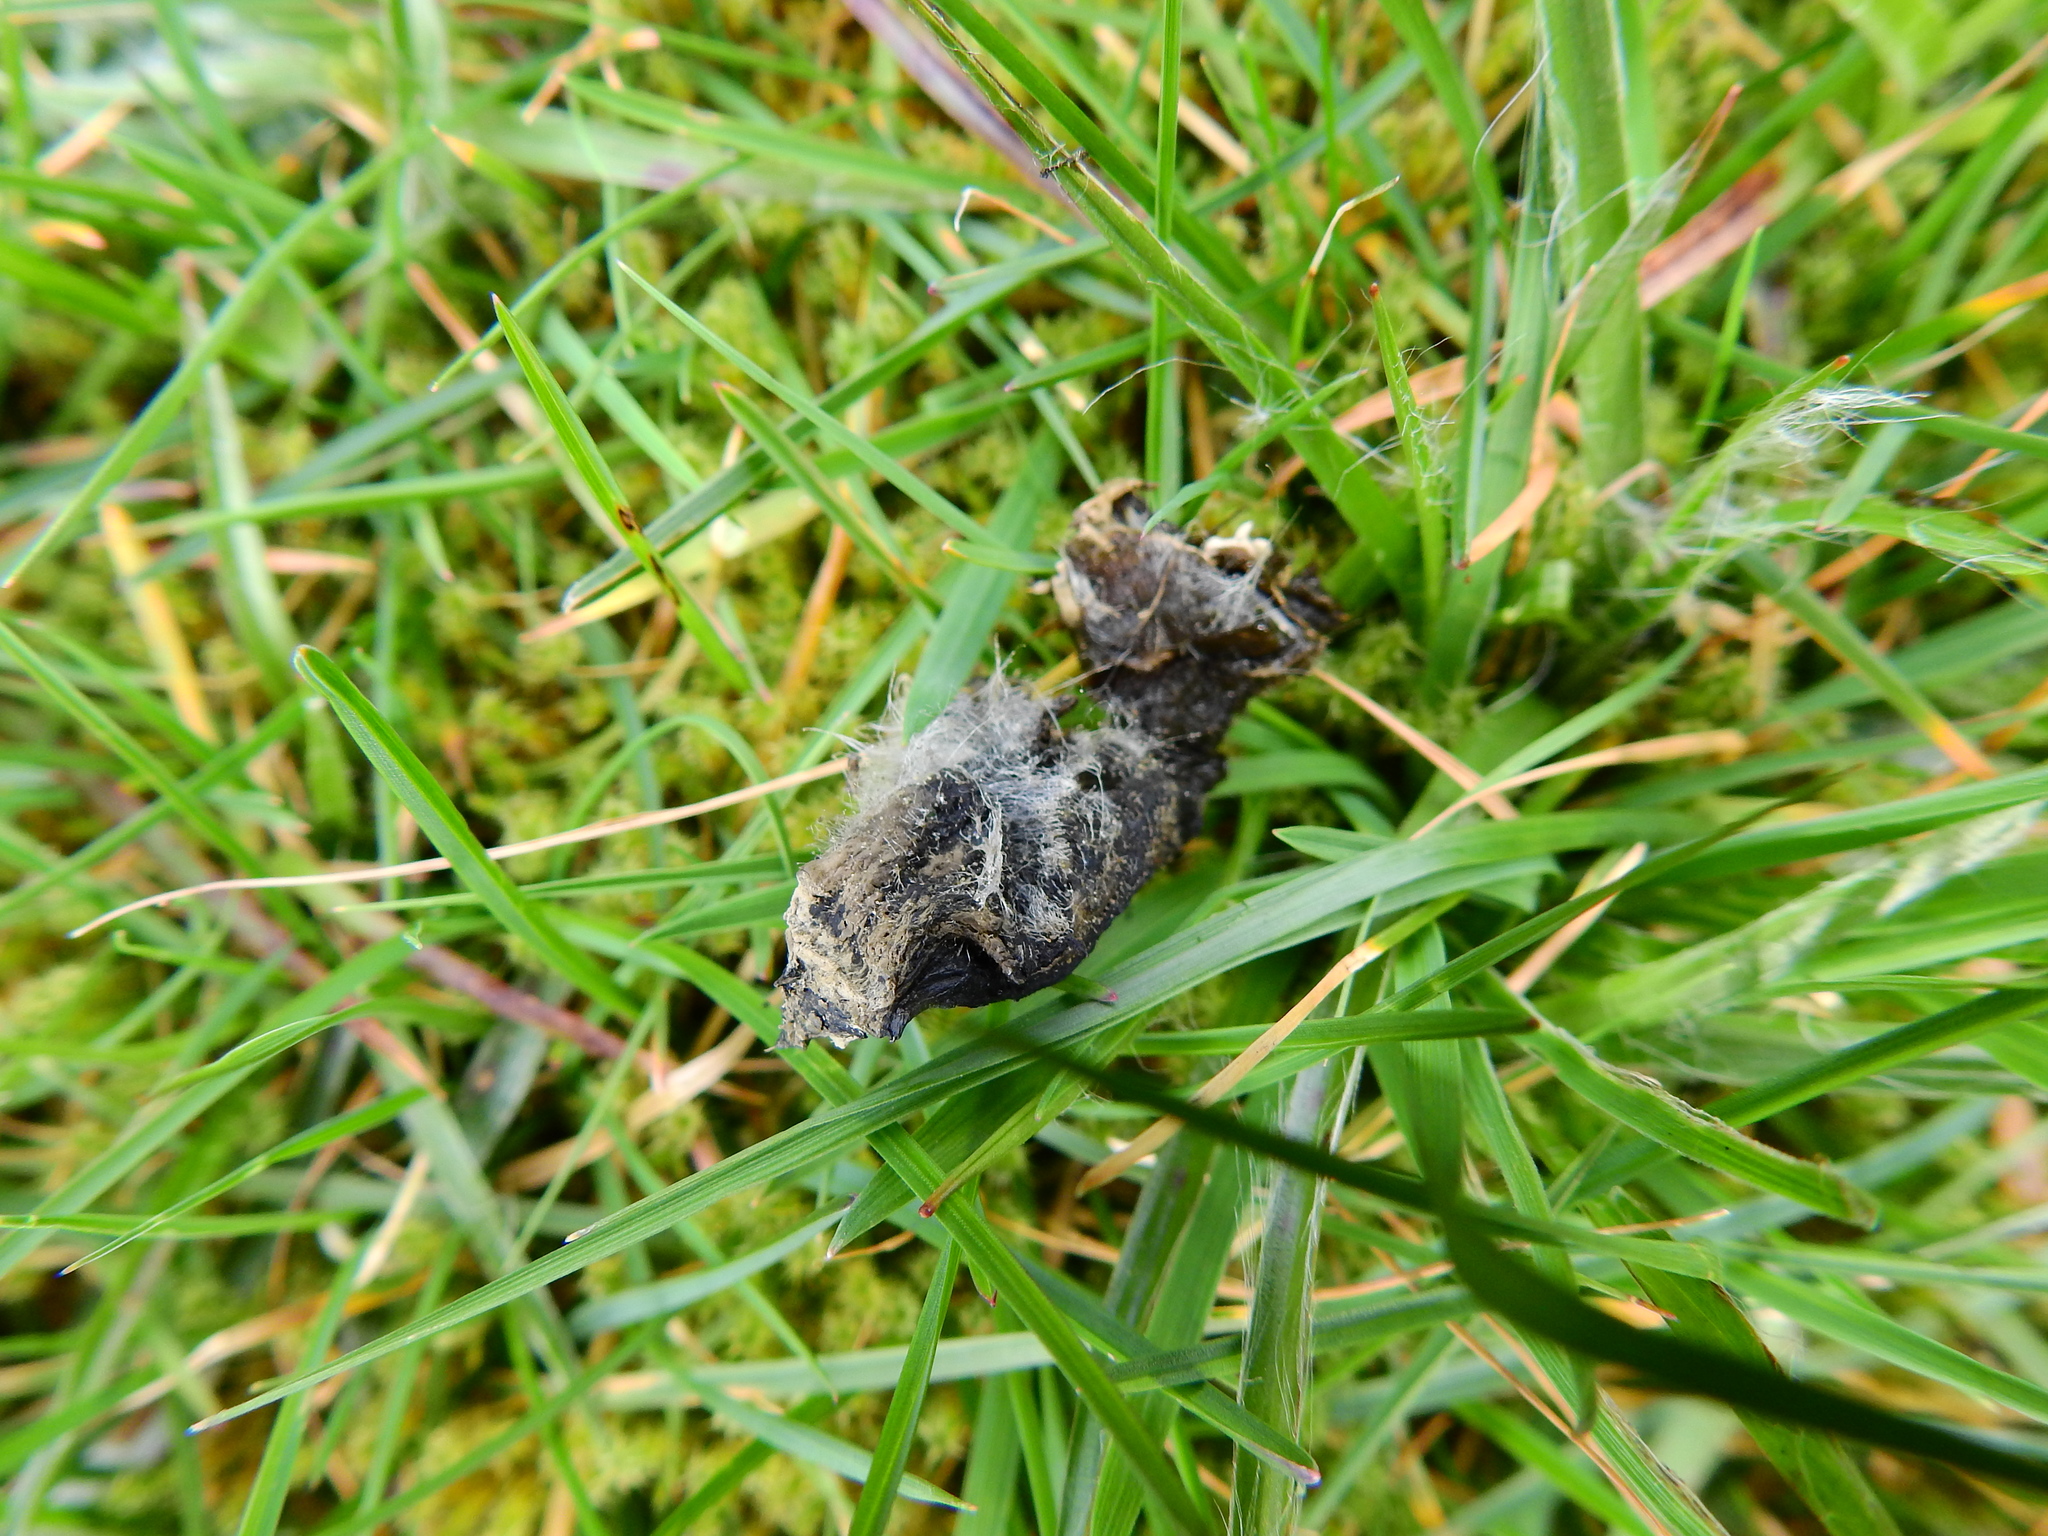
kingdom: Animalia
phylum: Chordata
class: Mammalia
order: Carnivora
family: Canidae
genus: Vulpes
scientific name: Vulpes vulpes
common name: Red fox
